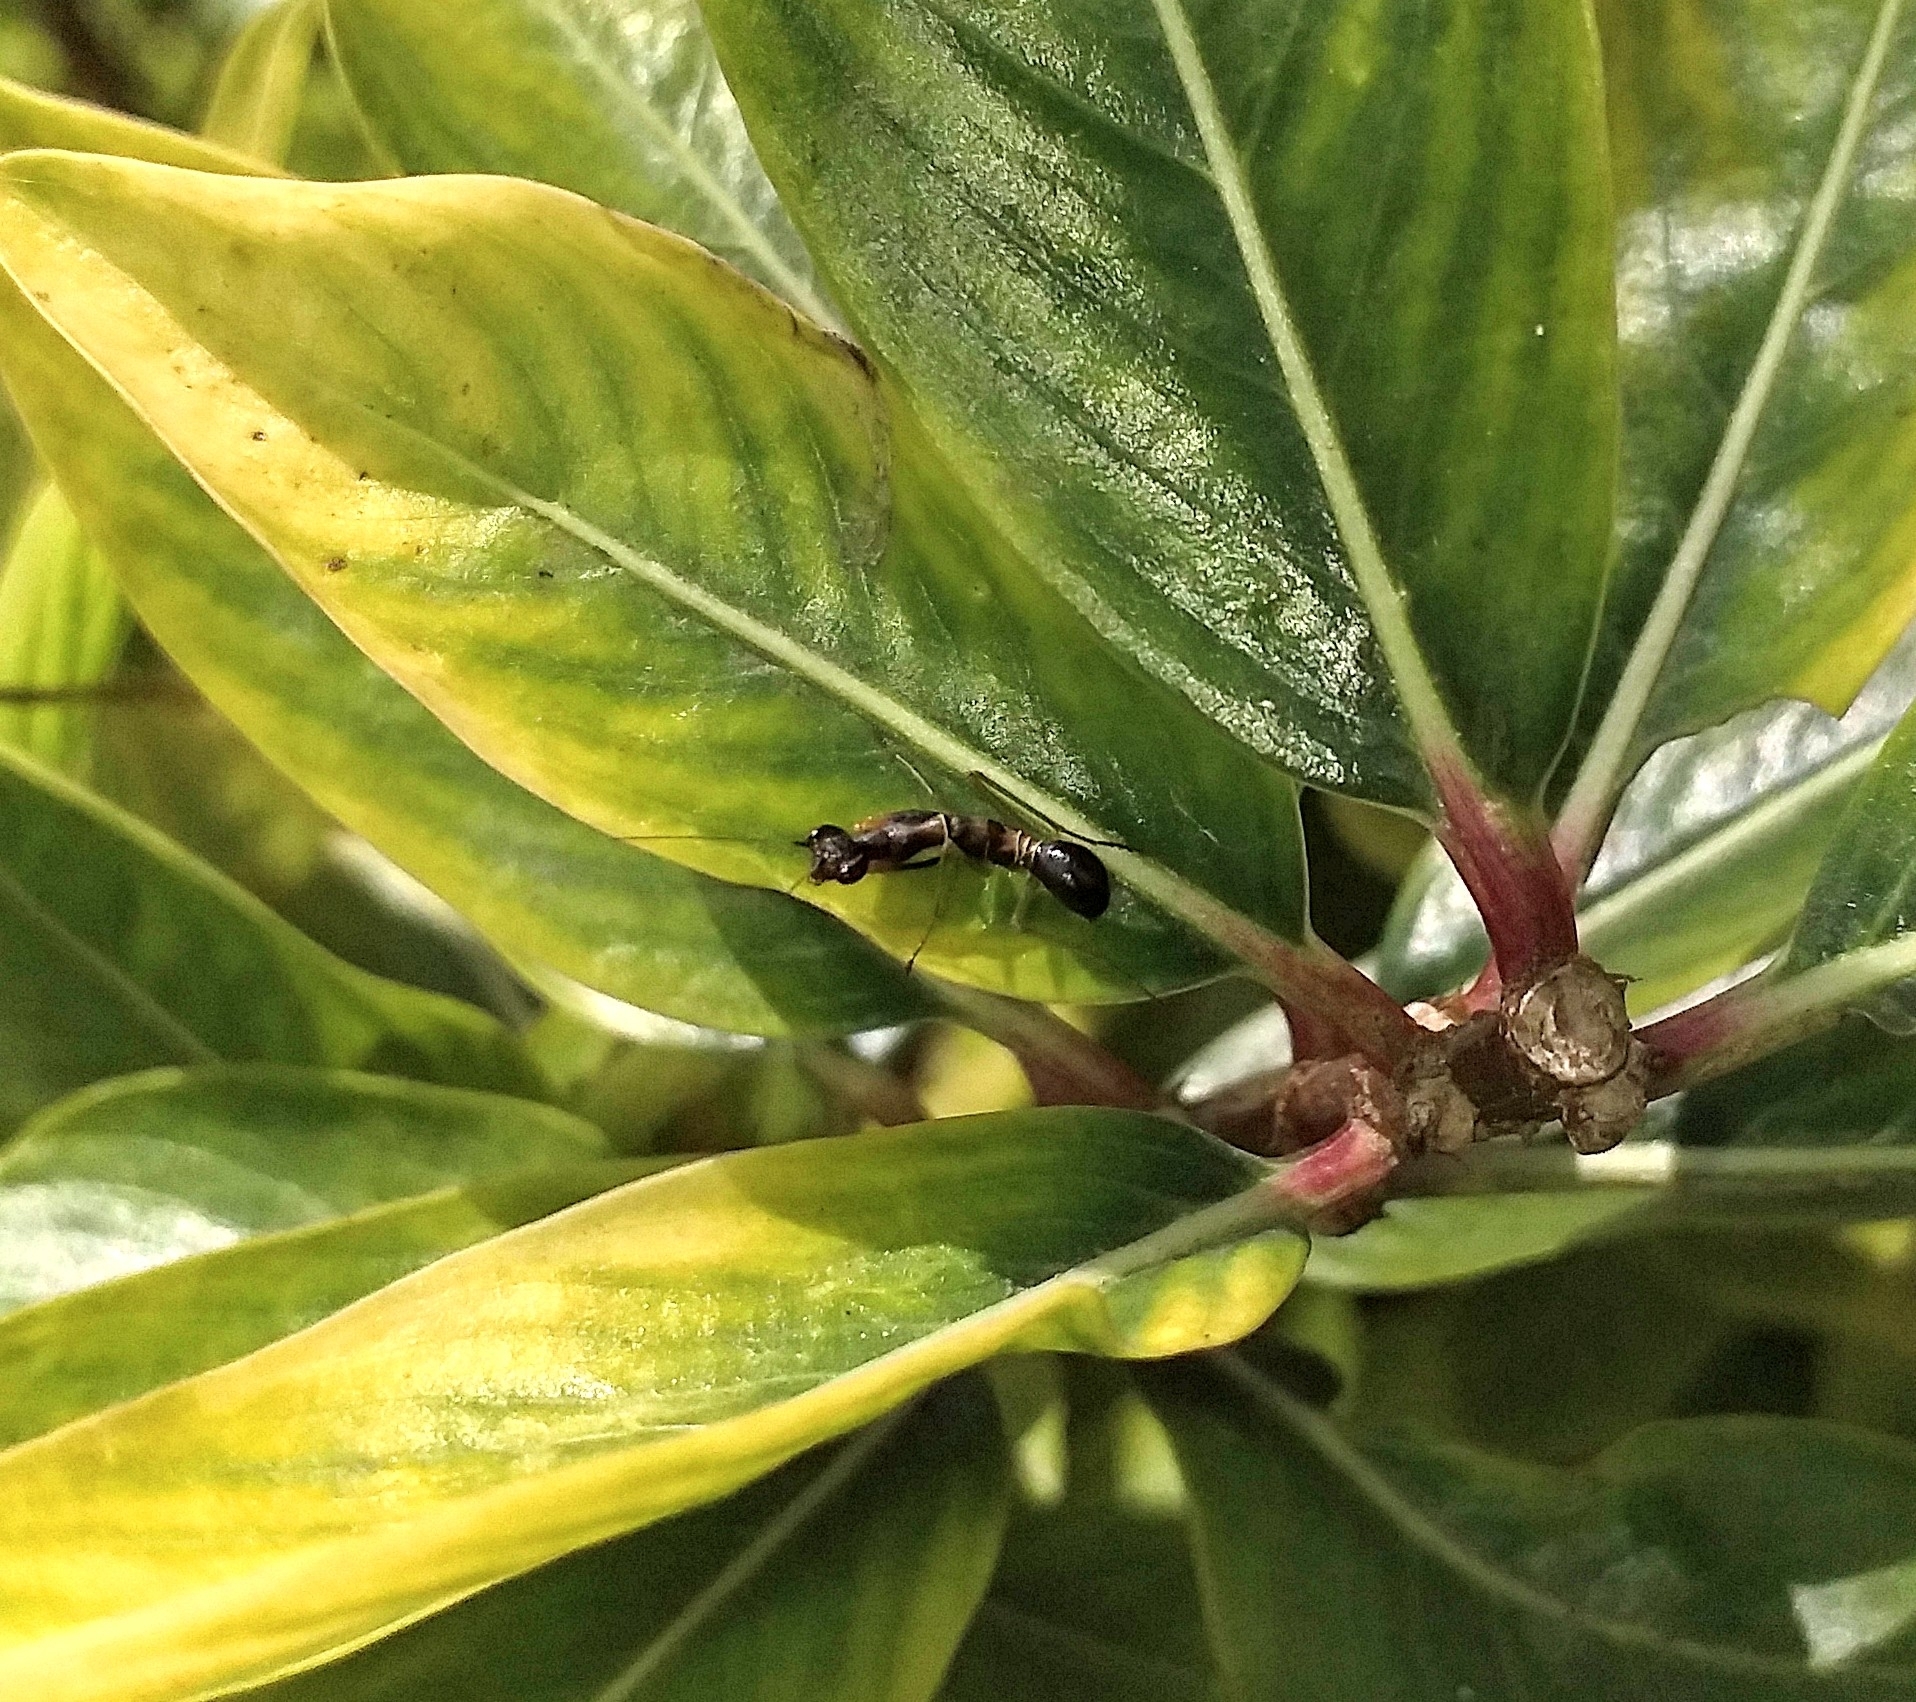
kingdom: Animalia
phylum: Arthropoda
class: Insecta
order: Mantodea
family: Hymenopodidae
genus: Odontomantis
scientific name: Odontomantis planiceps
